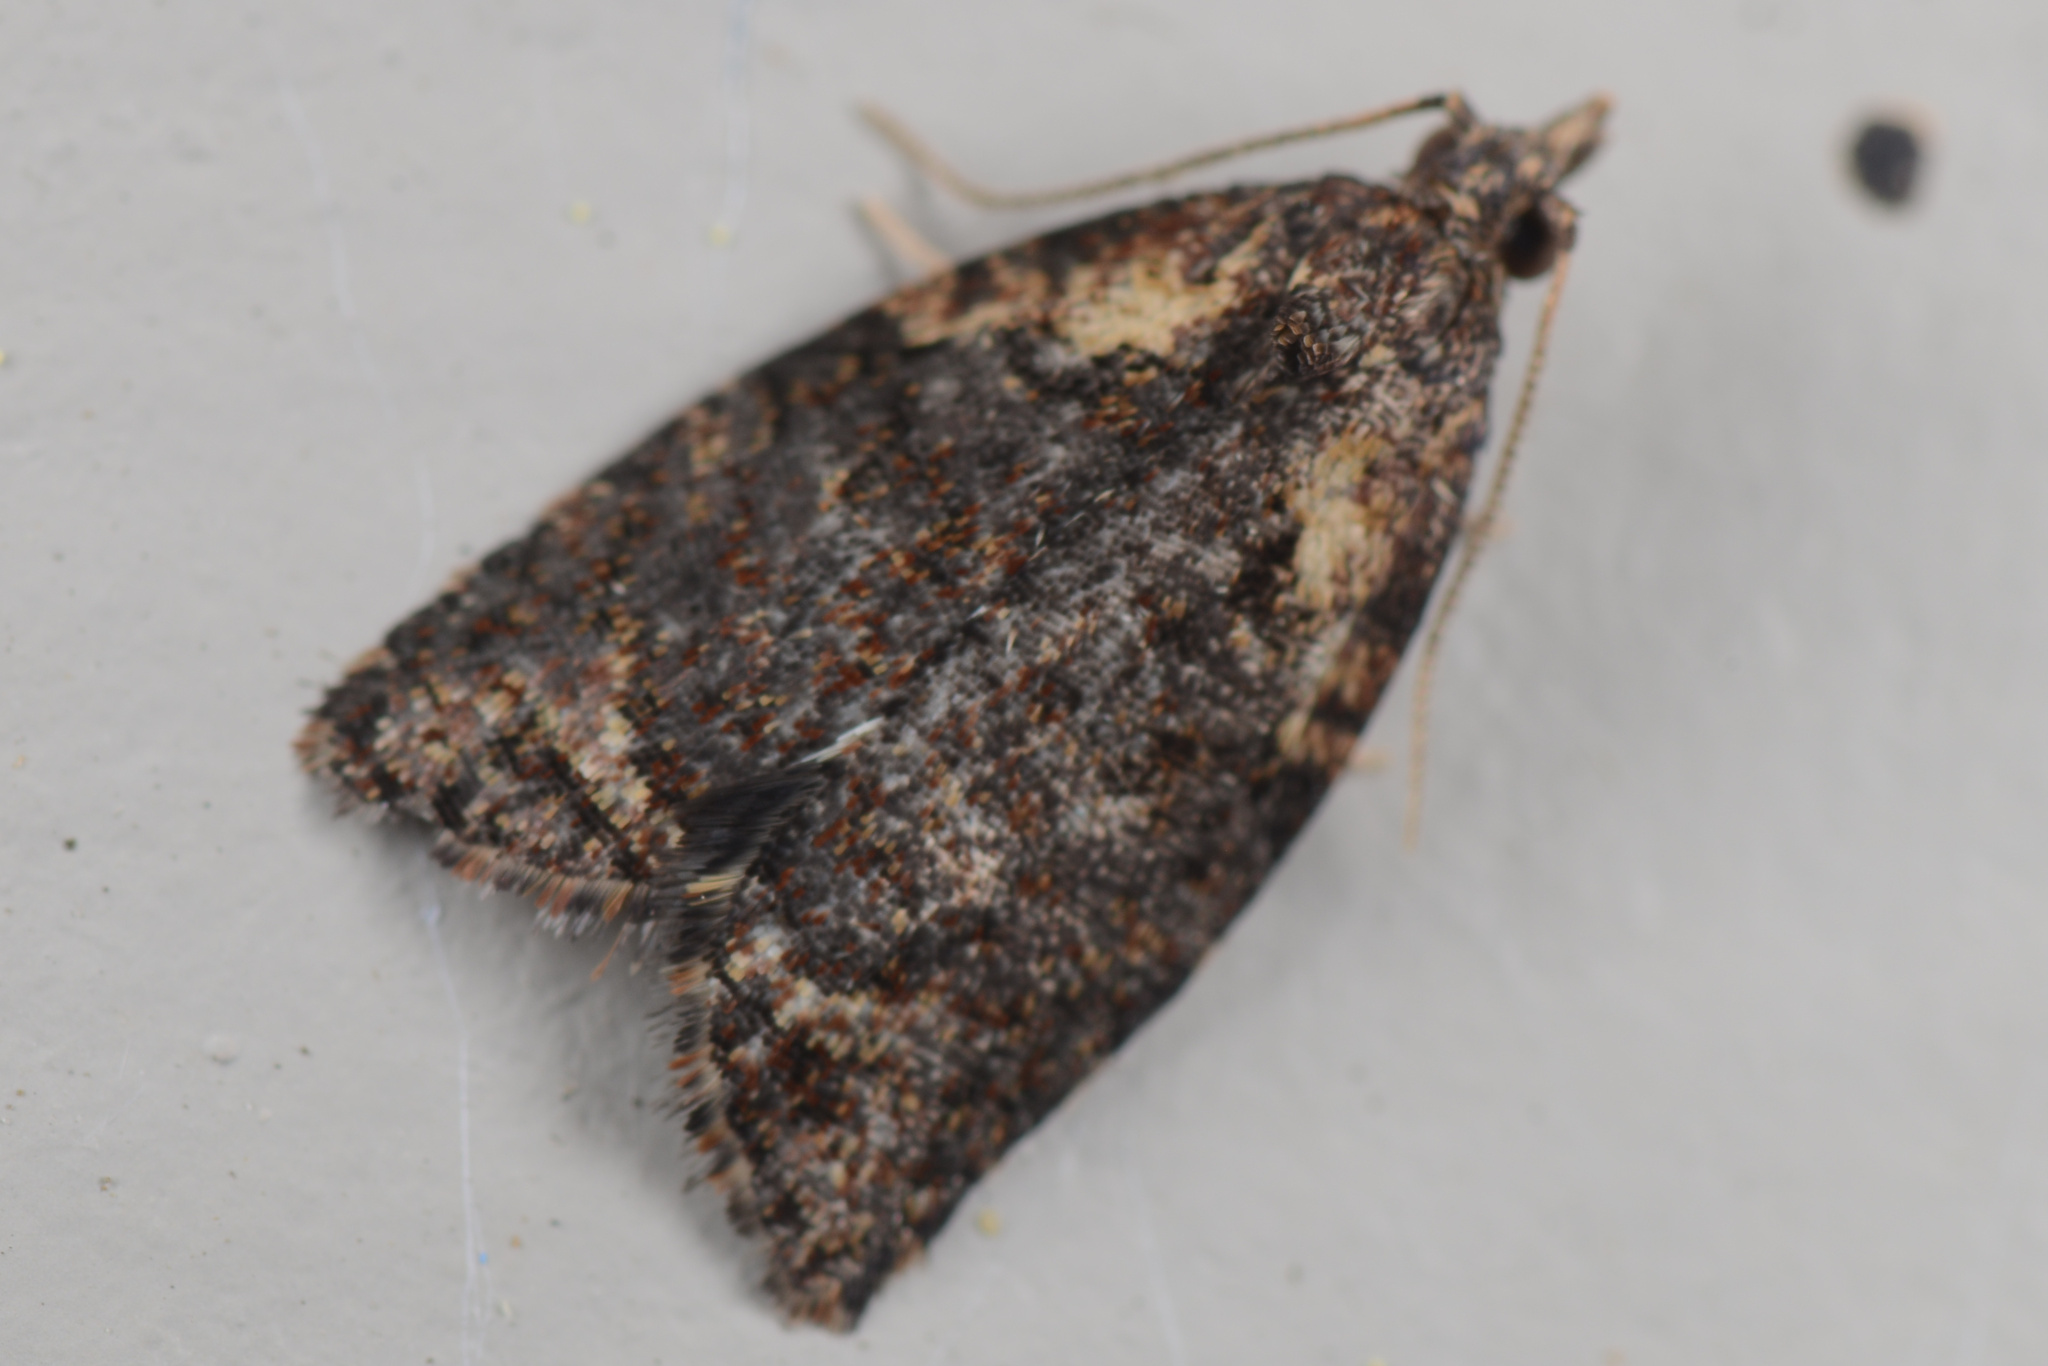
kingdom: Animalia
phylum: Arthropoda
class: Insecta
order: Lepidoptera
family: Tortricidae
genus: Capua
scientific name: Capua intractana
